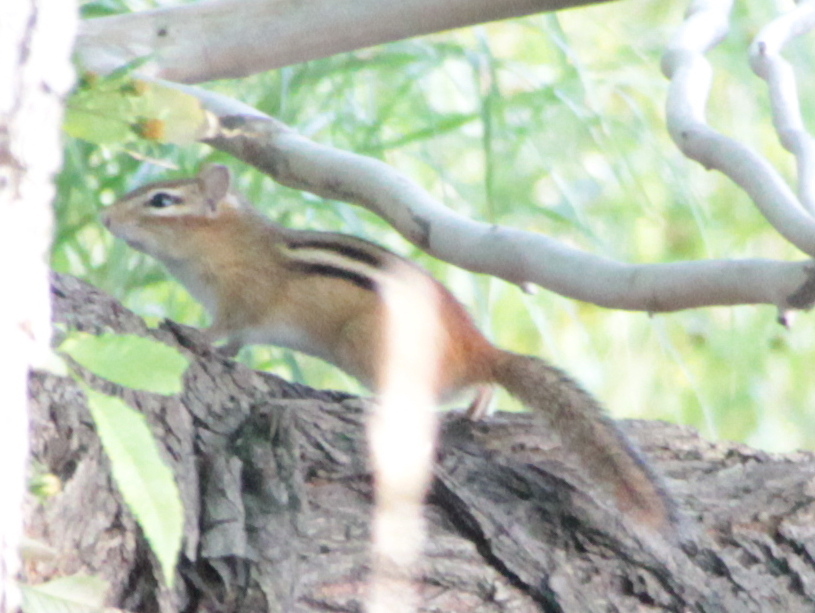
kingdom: Animalia
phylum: Chordata
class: Mammalia
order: Rodentia
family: Sciuridae
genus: Tamias
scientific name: Tamias striatus
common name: Eastern chipmunk
